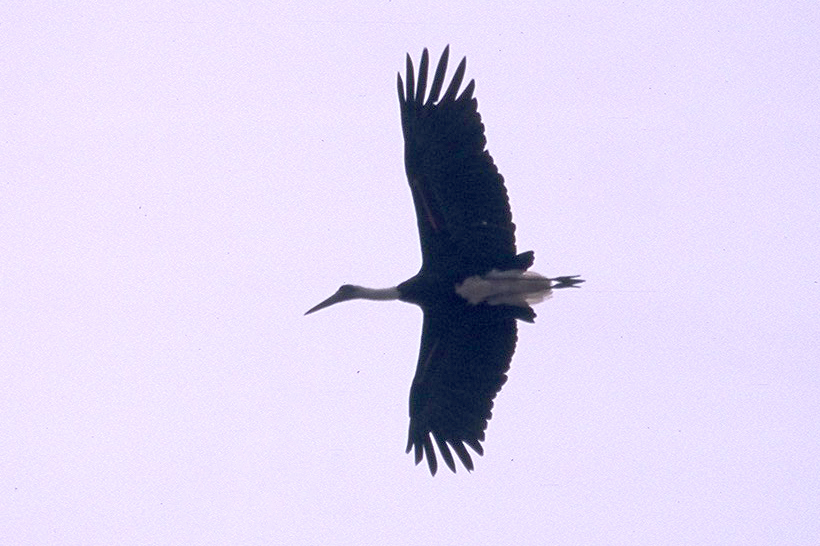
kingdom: Animalia
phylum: Chordata
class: Aves
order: Ciconiiformes
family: Ciconiidae
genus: Ciconia
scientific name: Ciconia microscelis
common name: African woollyneck
